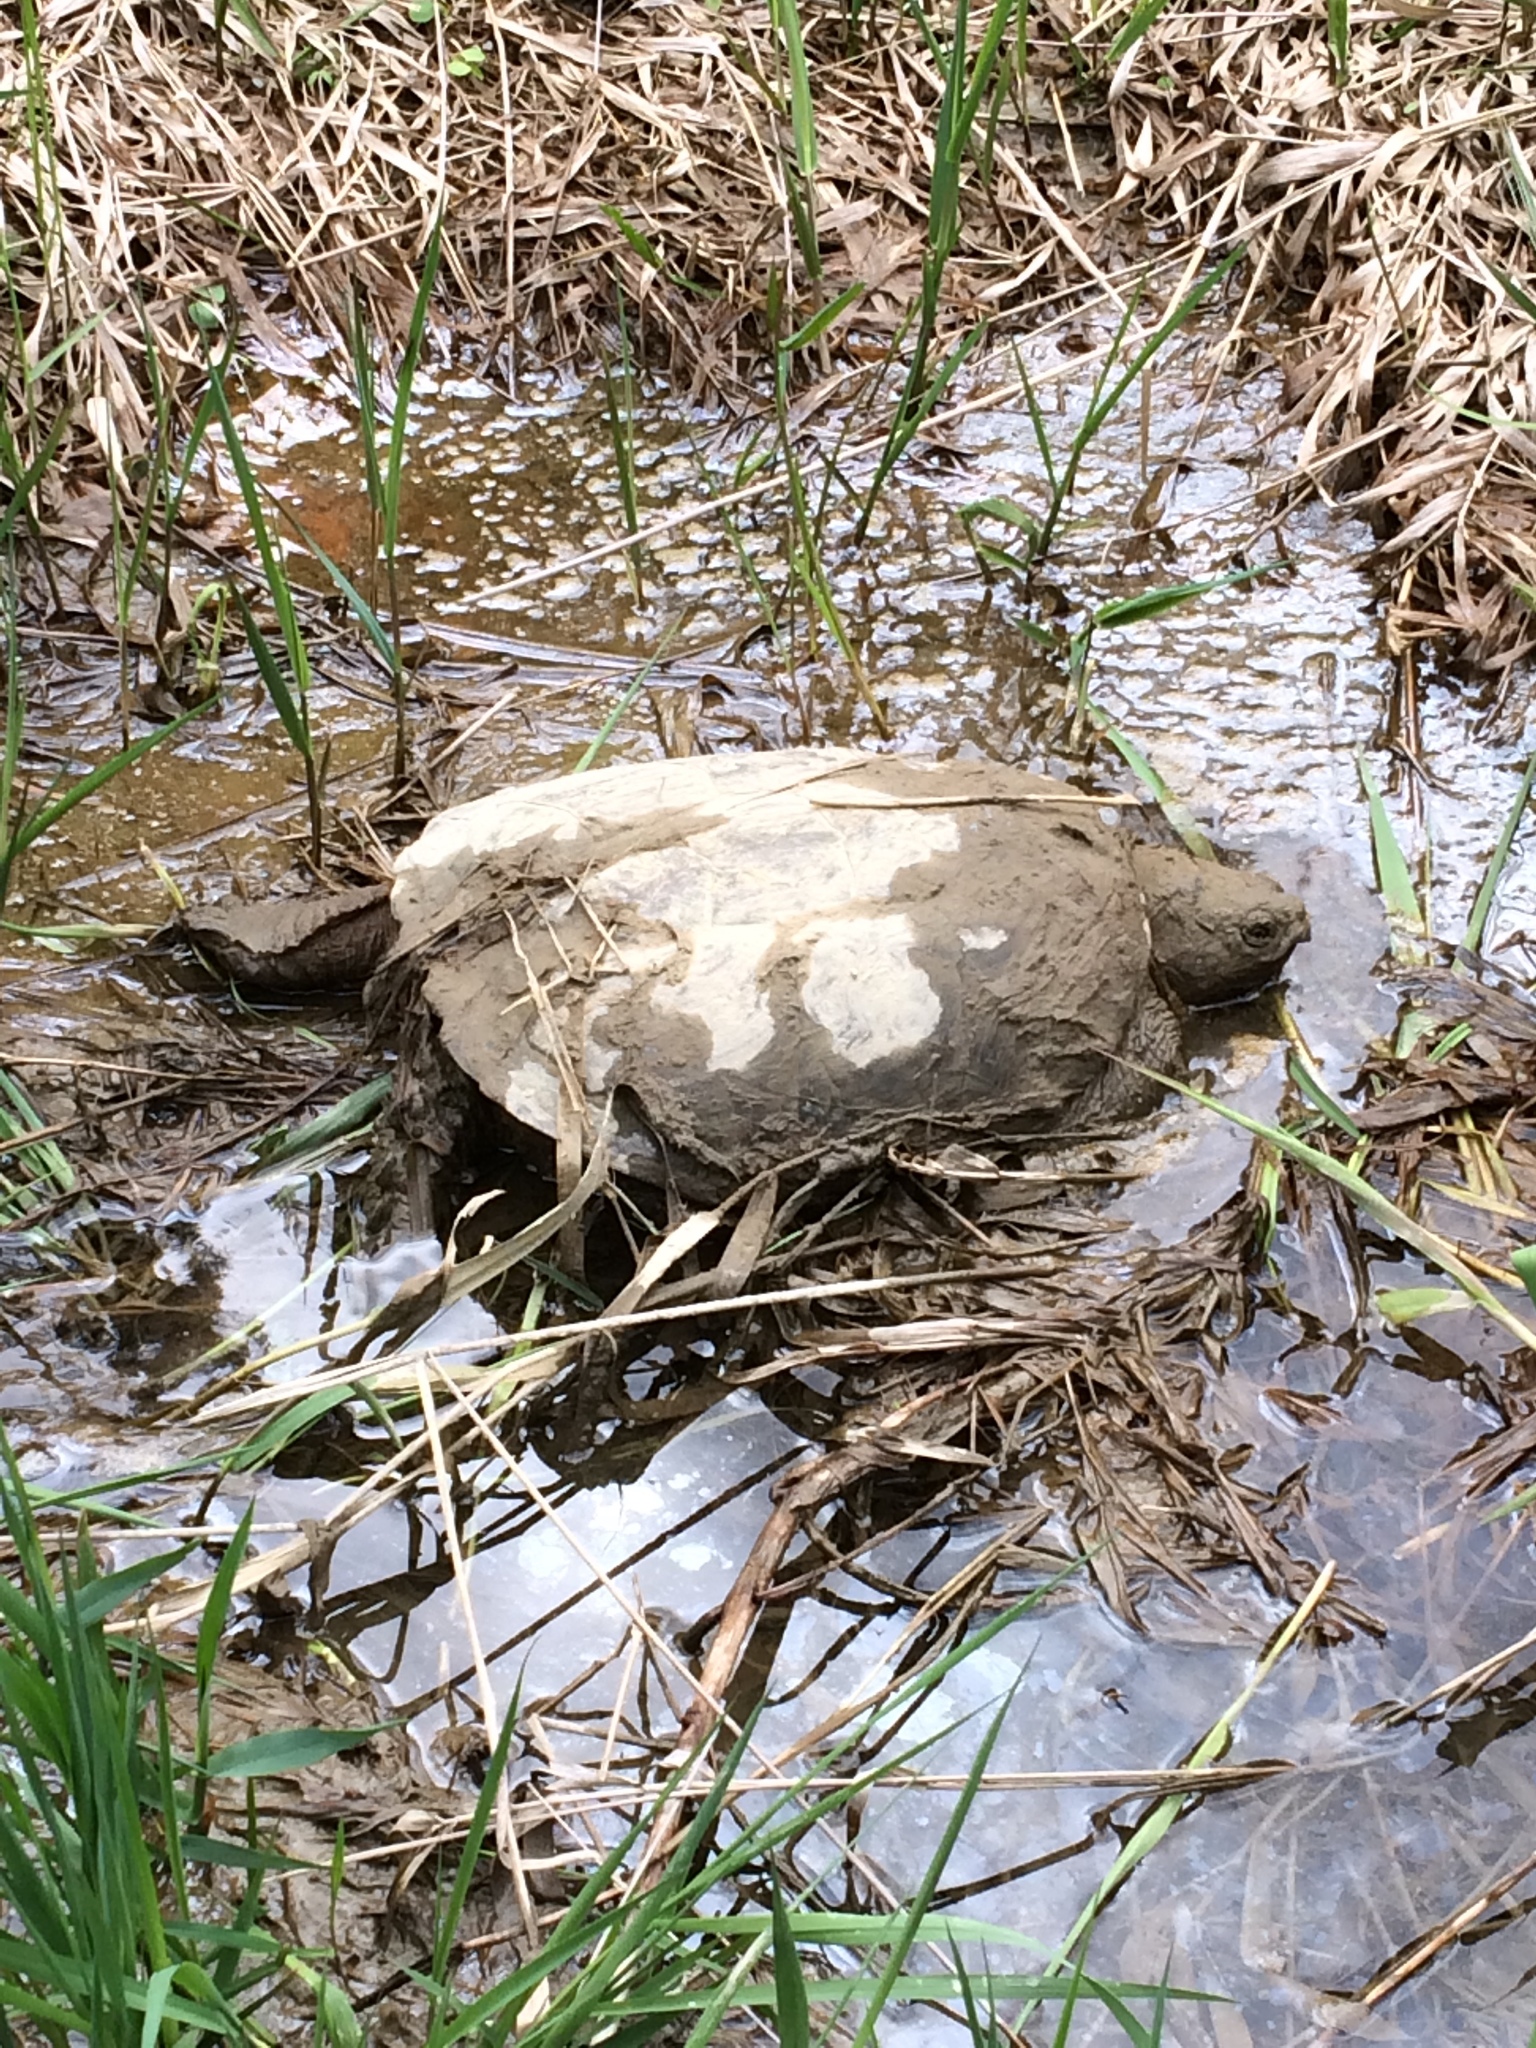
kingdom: Animalia
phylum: Chordata
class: Testudines
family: Chelydridae
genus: Chelydra
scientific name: Chelydra serpentina
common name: Common snapping turtle
